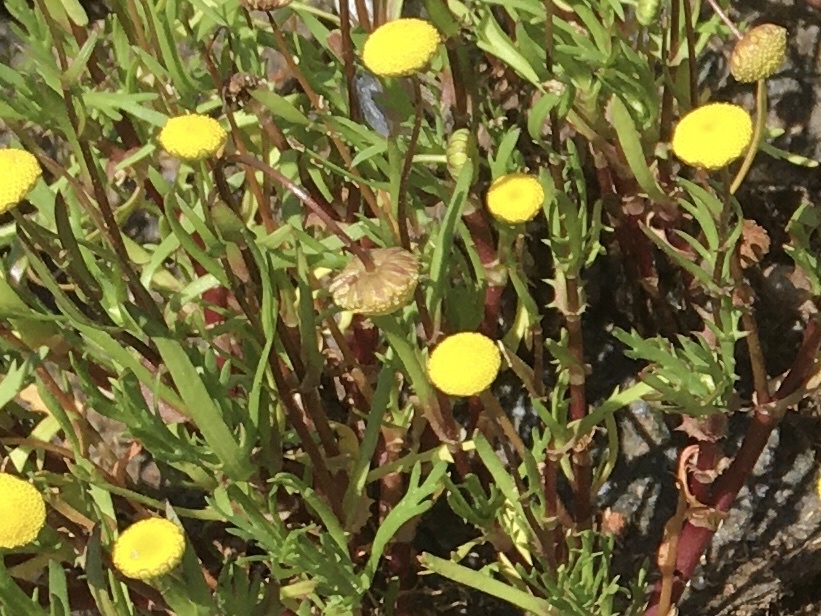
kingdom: Plantae
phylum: Tracheophyta
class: Magnoliopsida
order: Asterales
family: Asteraceae
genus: Cotula
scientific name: Cotula coronopifolia
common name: Buttonweed
